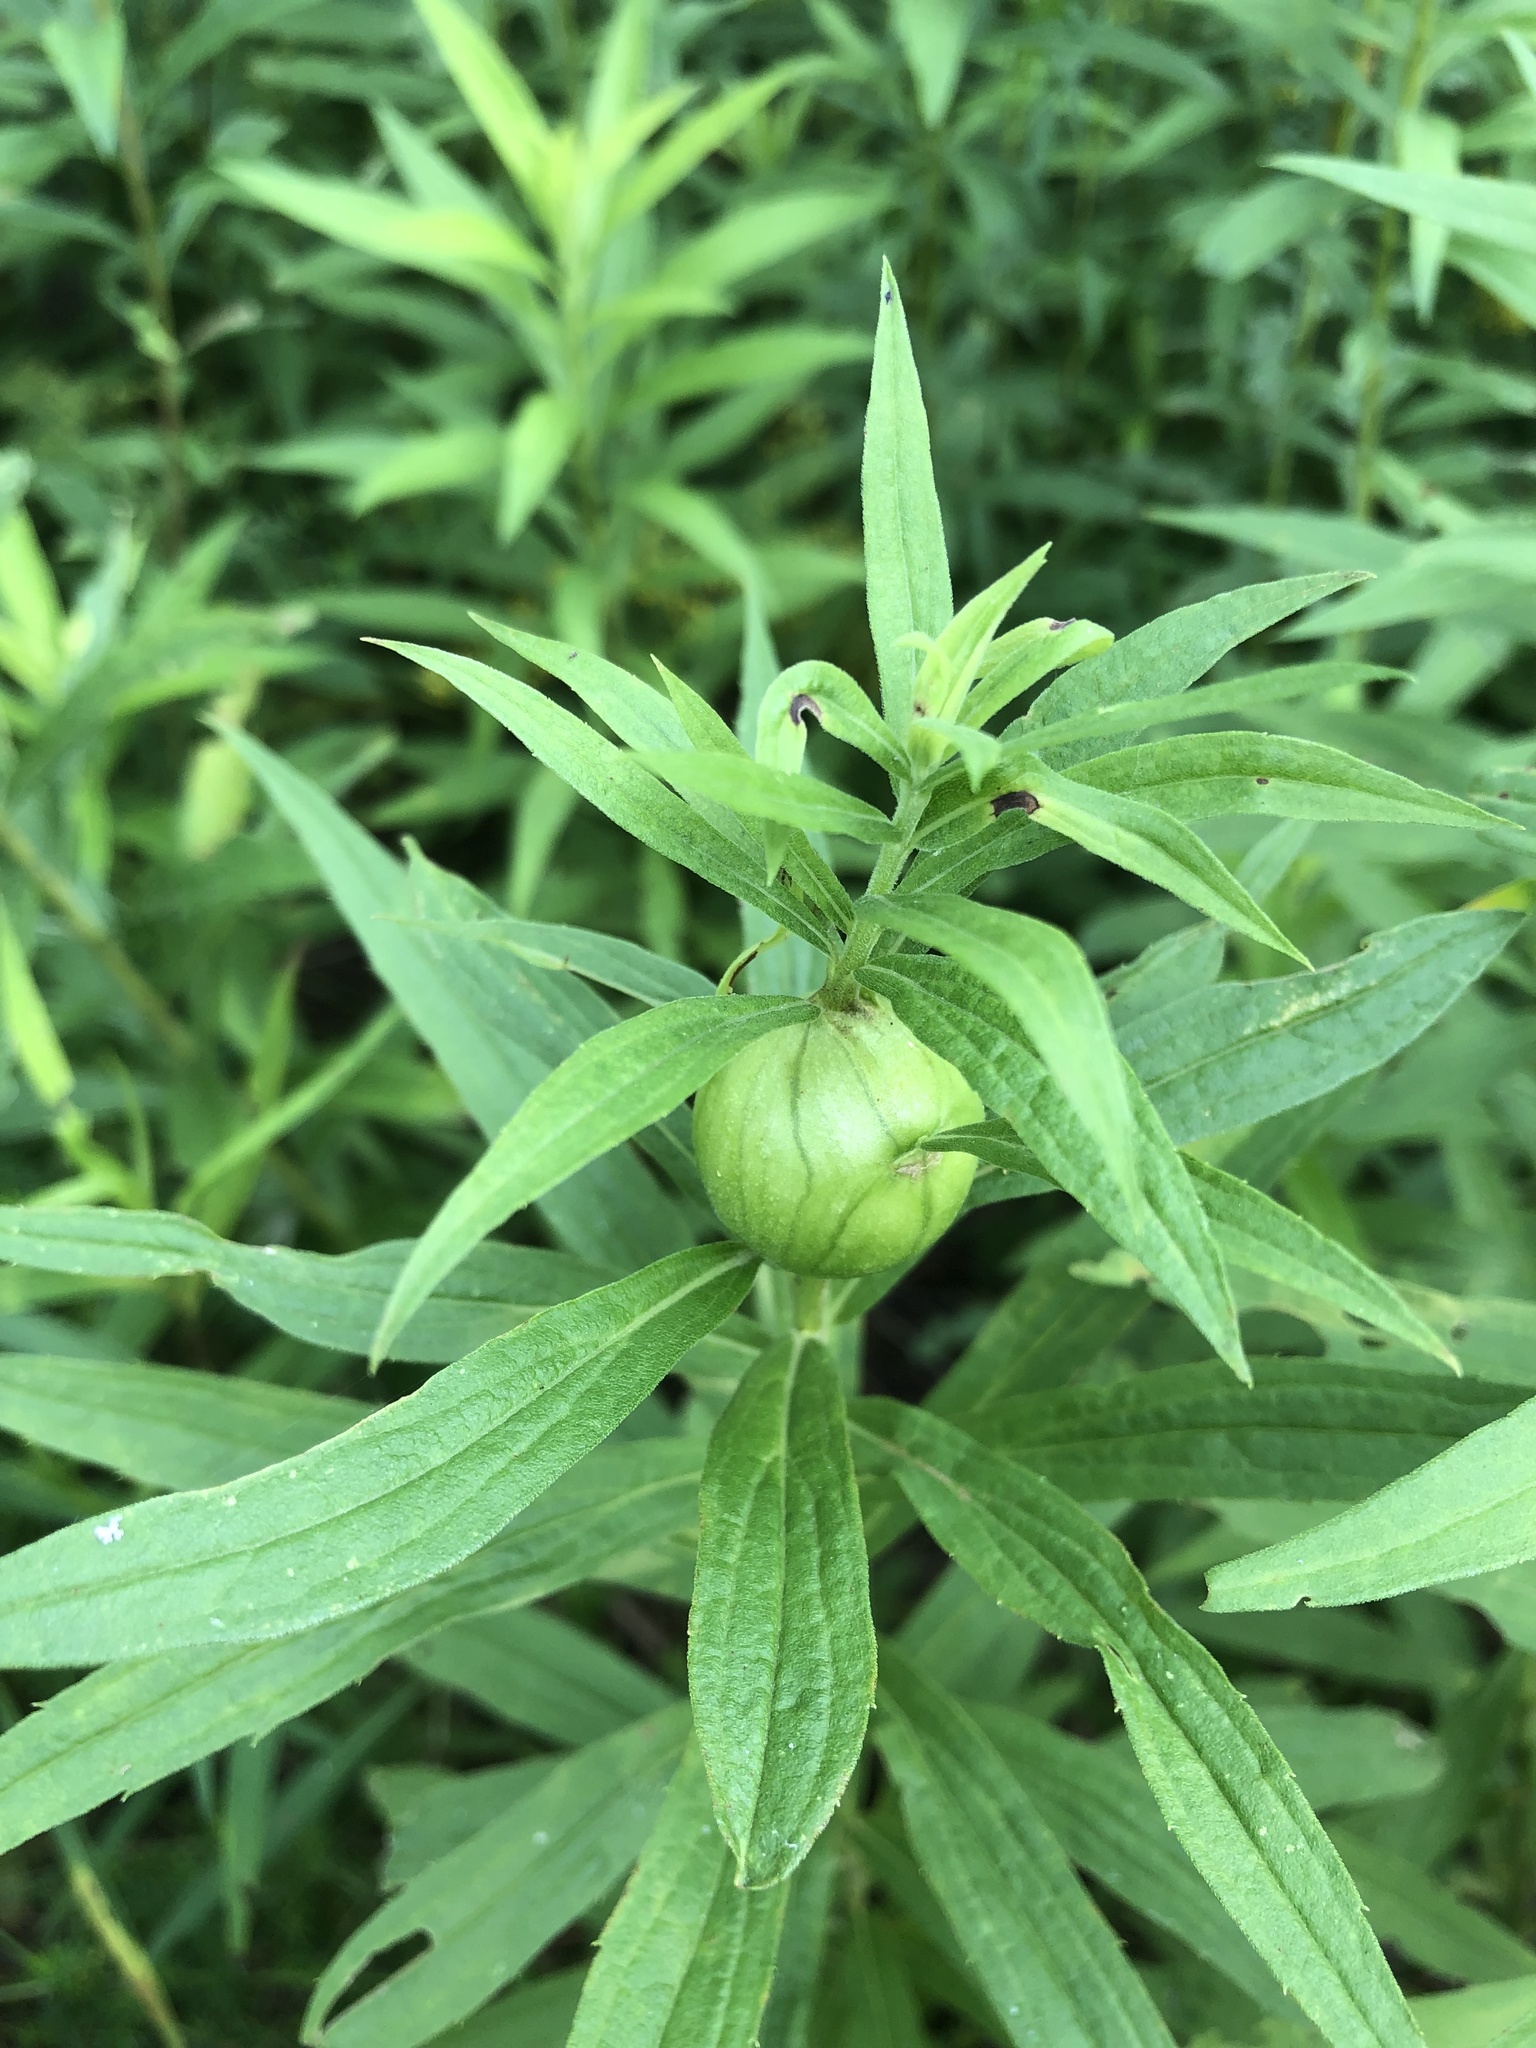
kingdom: Animalia
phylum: Arthropoda
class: Insecta
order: Diptera
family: Tephritidae
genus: Eurosta
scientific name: Eurosta solidaginis
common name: Goldenrod gall fly
